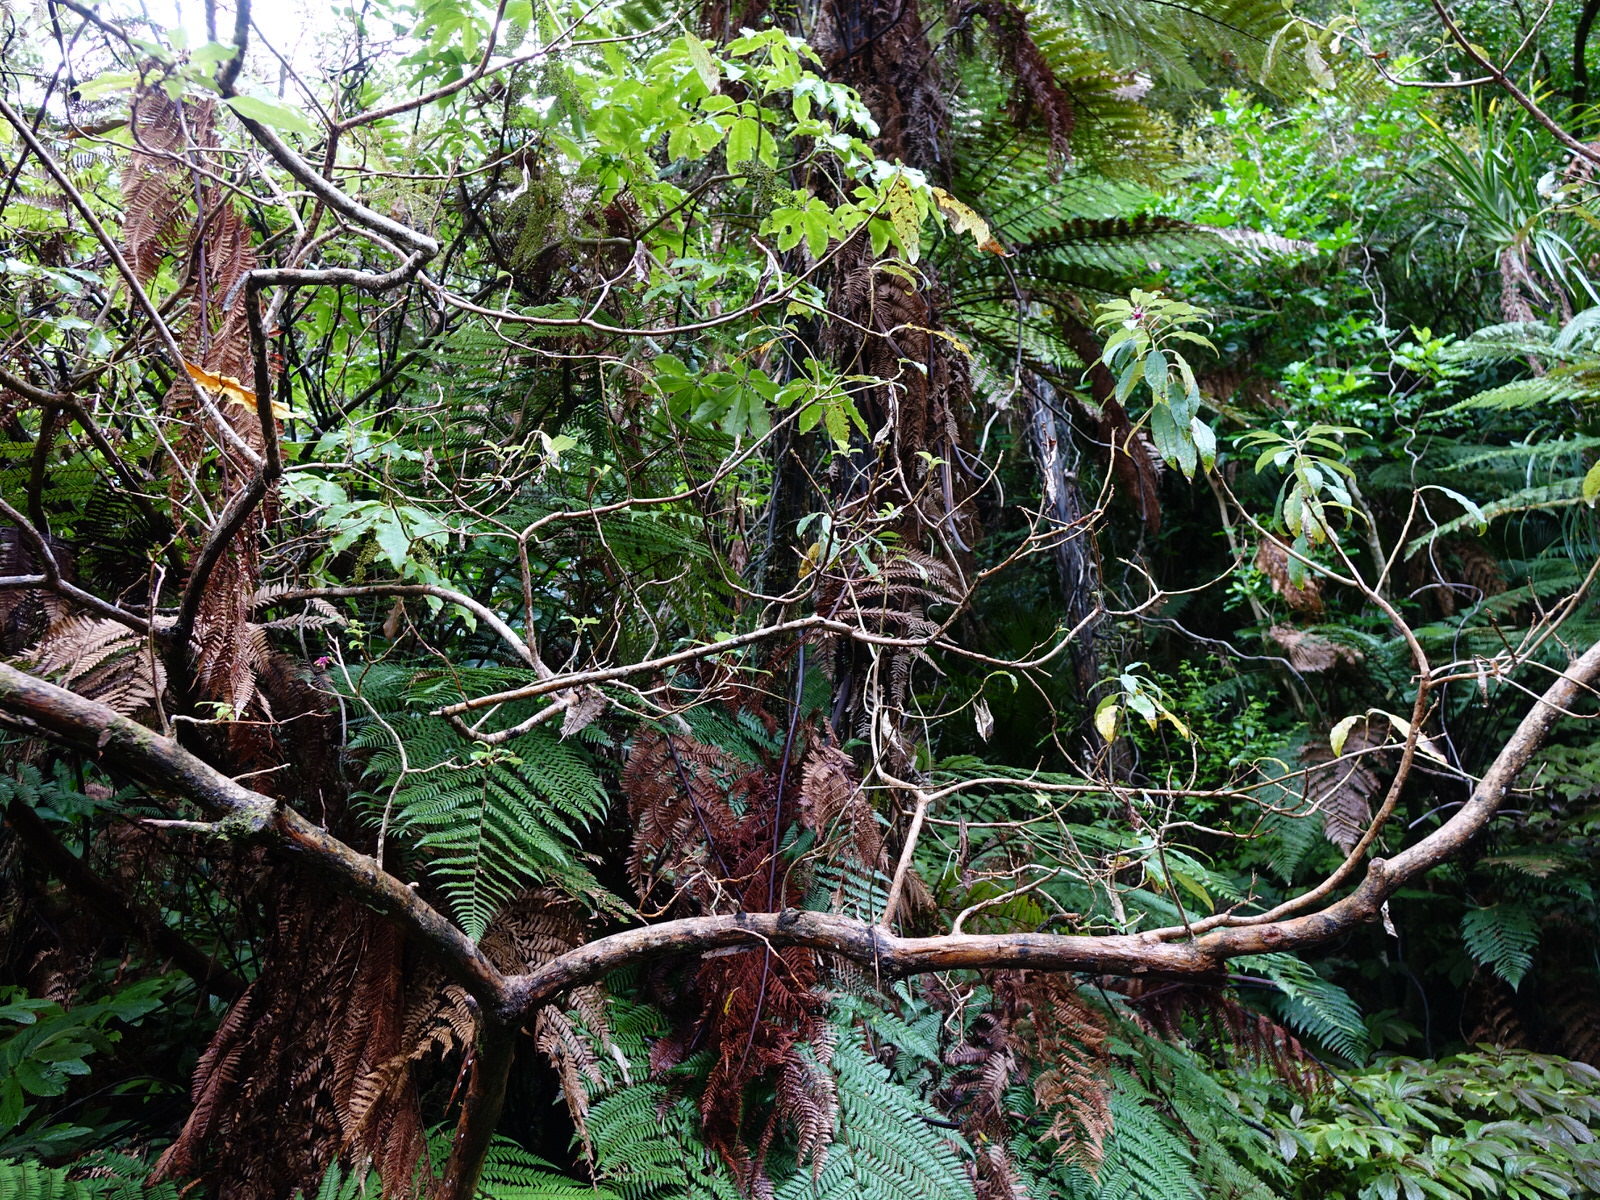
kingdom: Plantae
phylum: Tracheophyta
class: Magnoliopsida
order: Myrtales
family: Onagraceae
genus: Fuchsia
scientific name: Fuchsia excorticata
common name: Tree fuchsia
